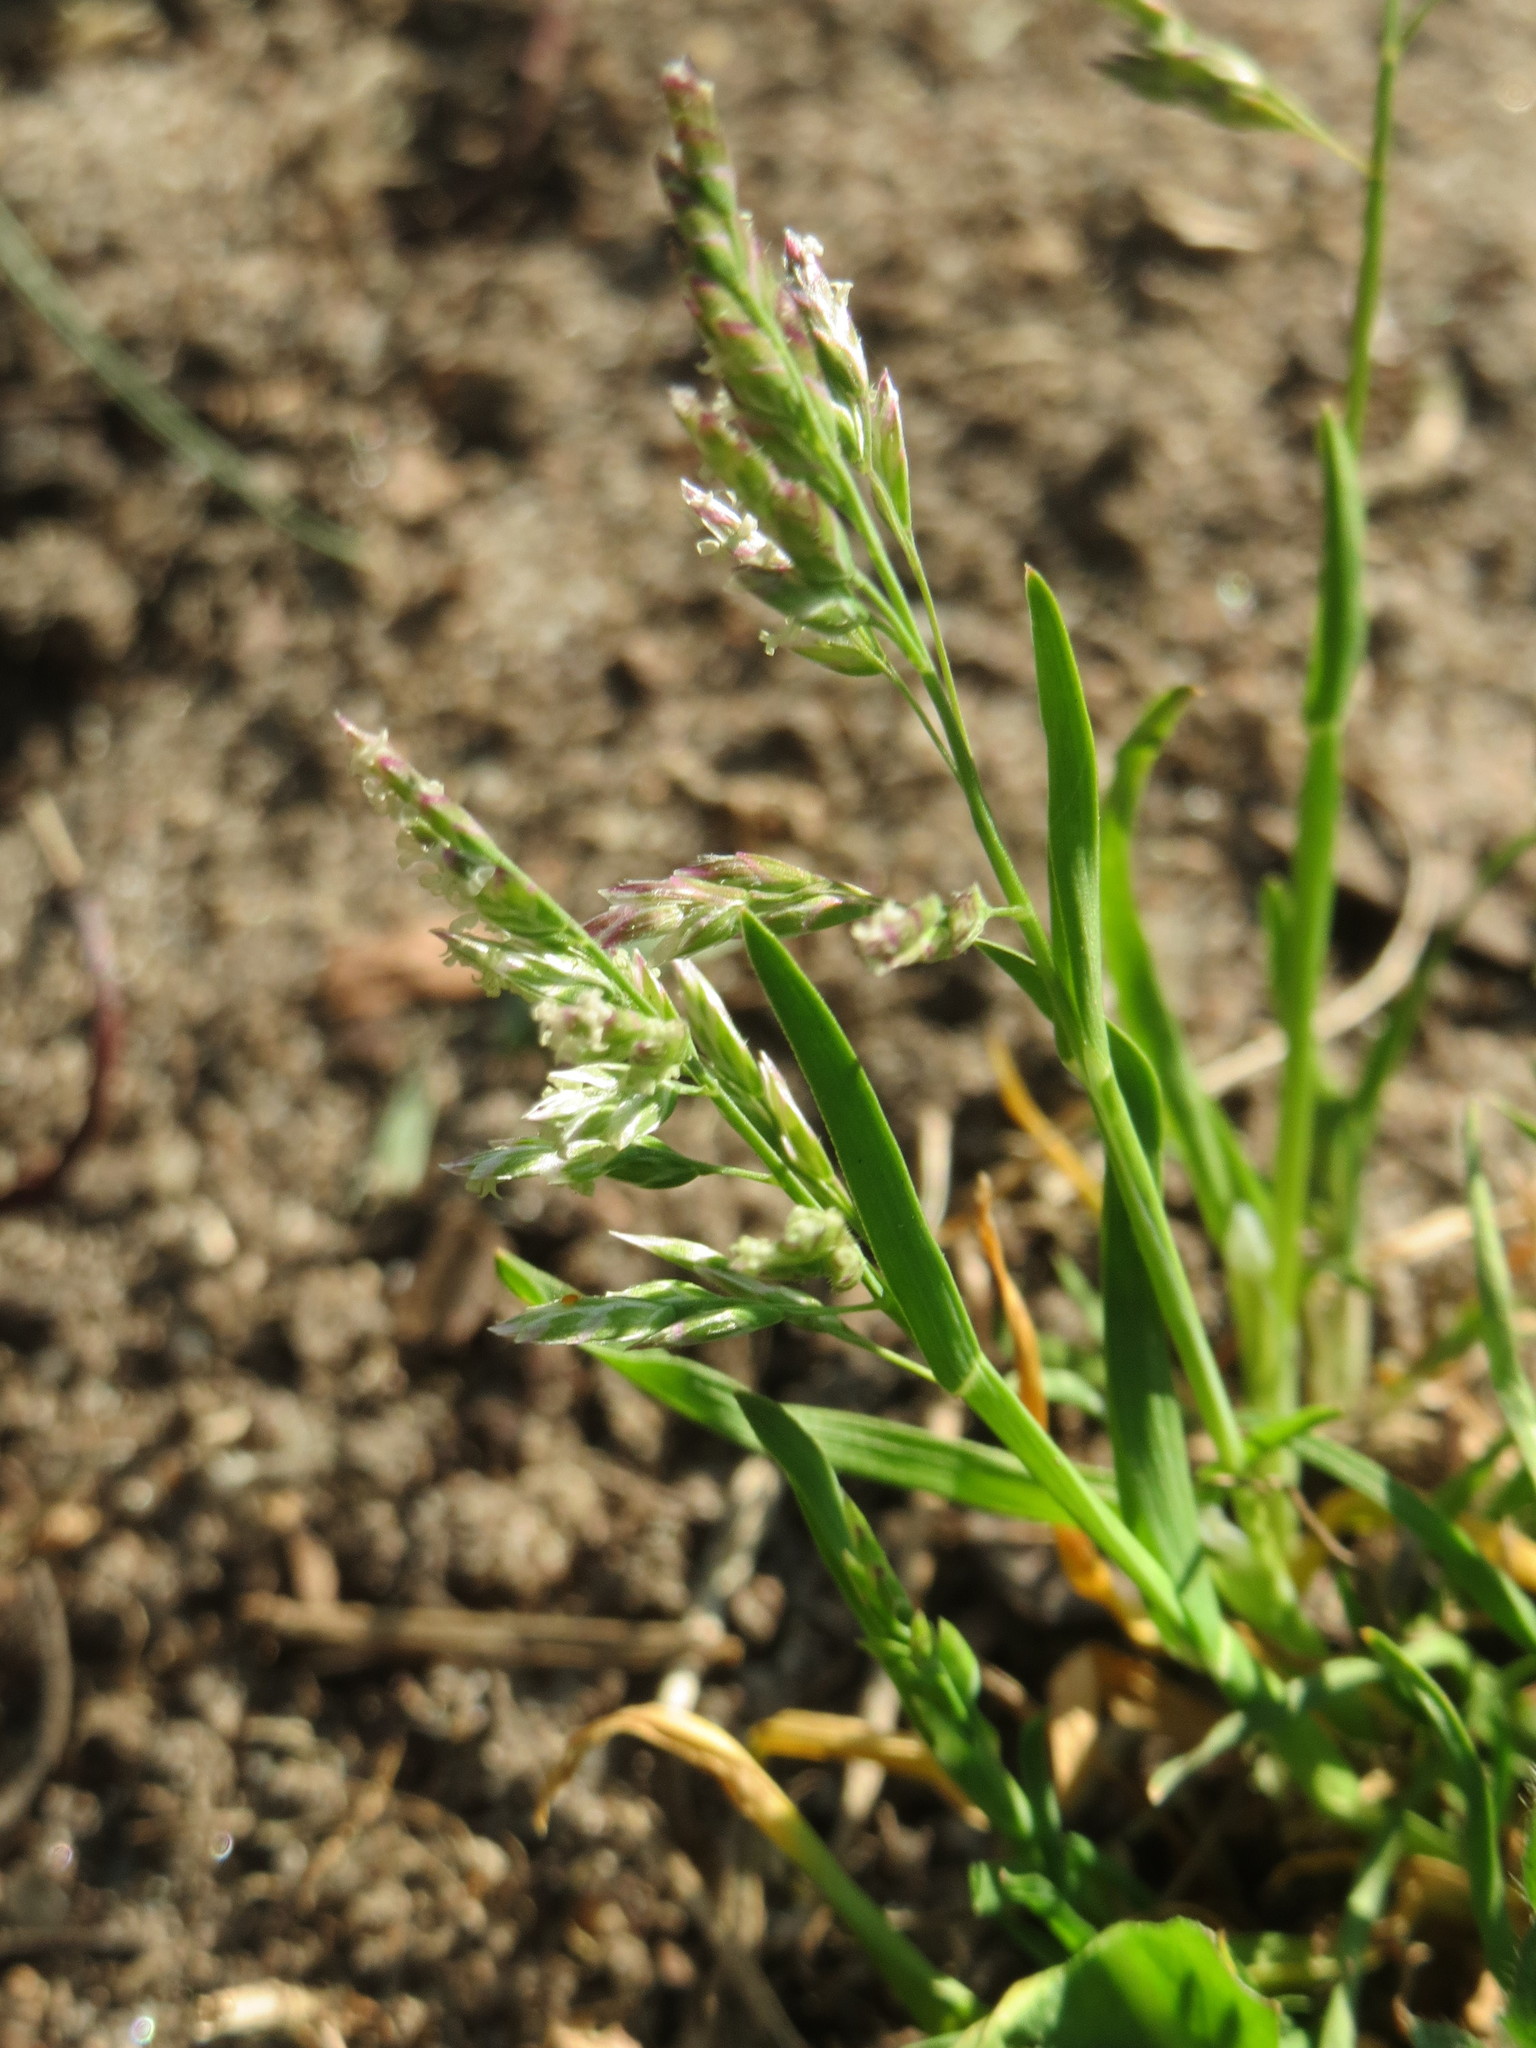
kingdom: Plantae
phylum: Tracheophyta
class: Liliopsida
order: Poales
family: Poaceae
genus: Poa
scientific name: Poa annua
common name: Annual bluegrass
